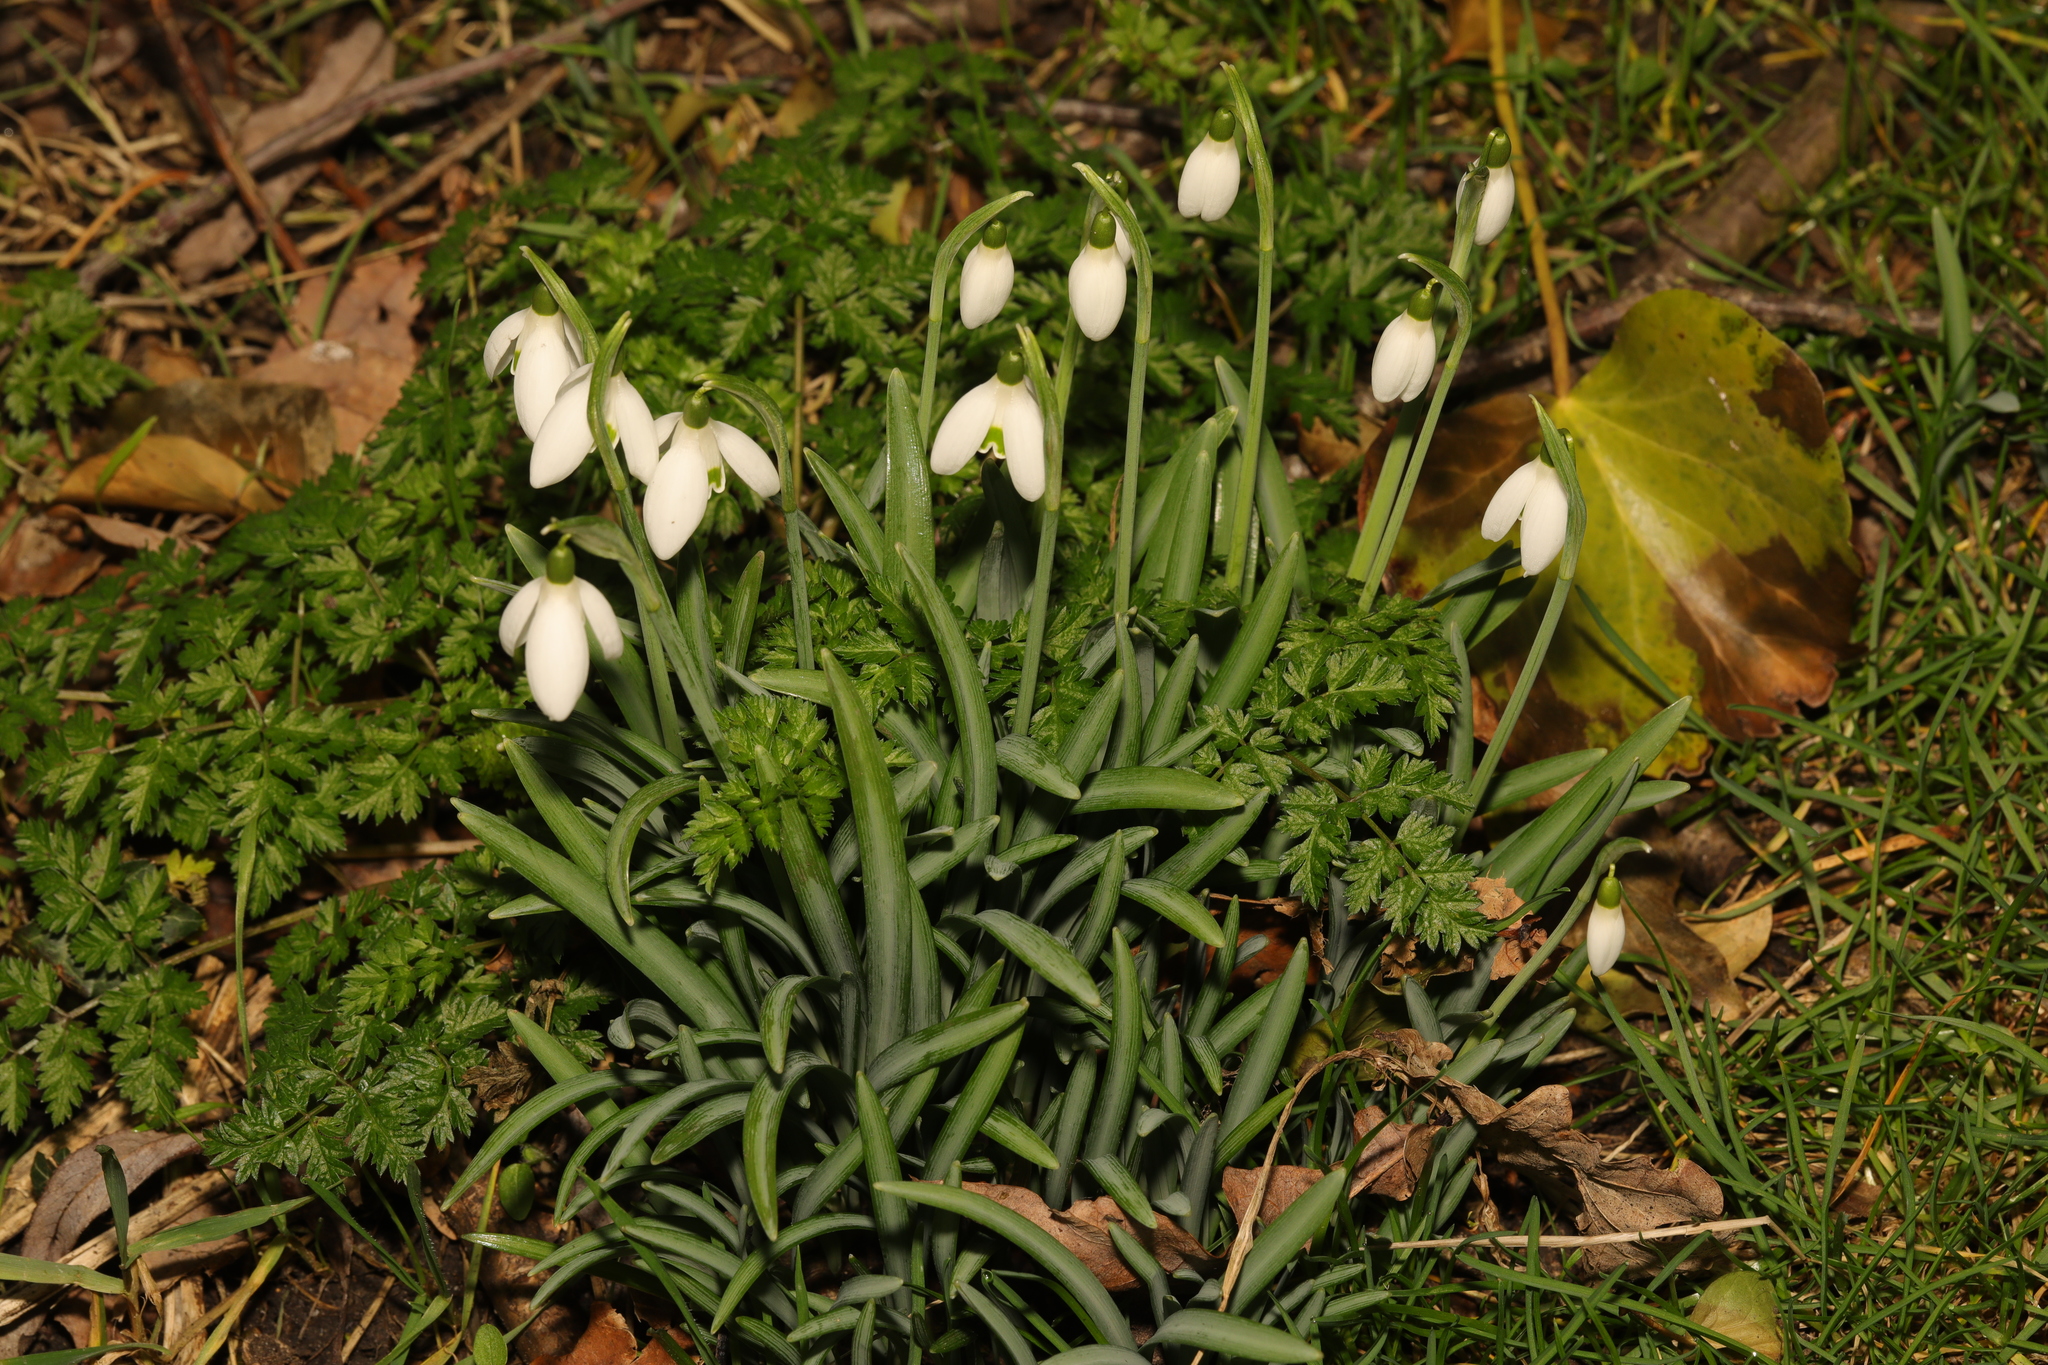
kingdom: Plantae
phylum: Tracheophyta
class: Liliopsida
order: Asparagales
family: Amaryllidaceae
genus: Galanthus
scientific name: Galanthus valentinei
